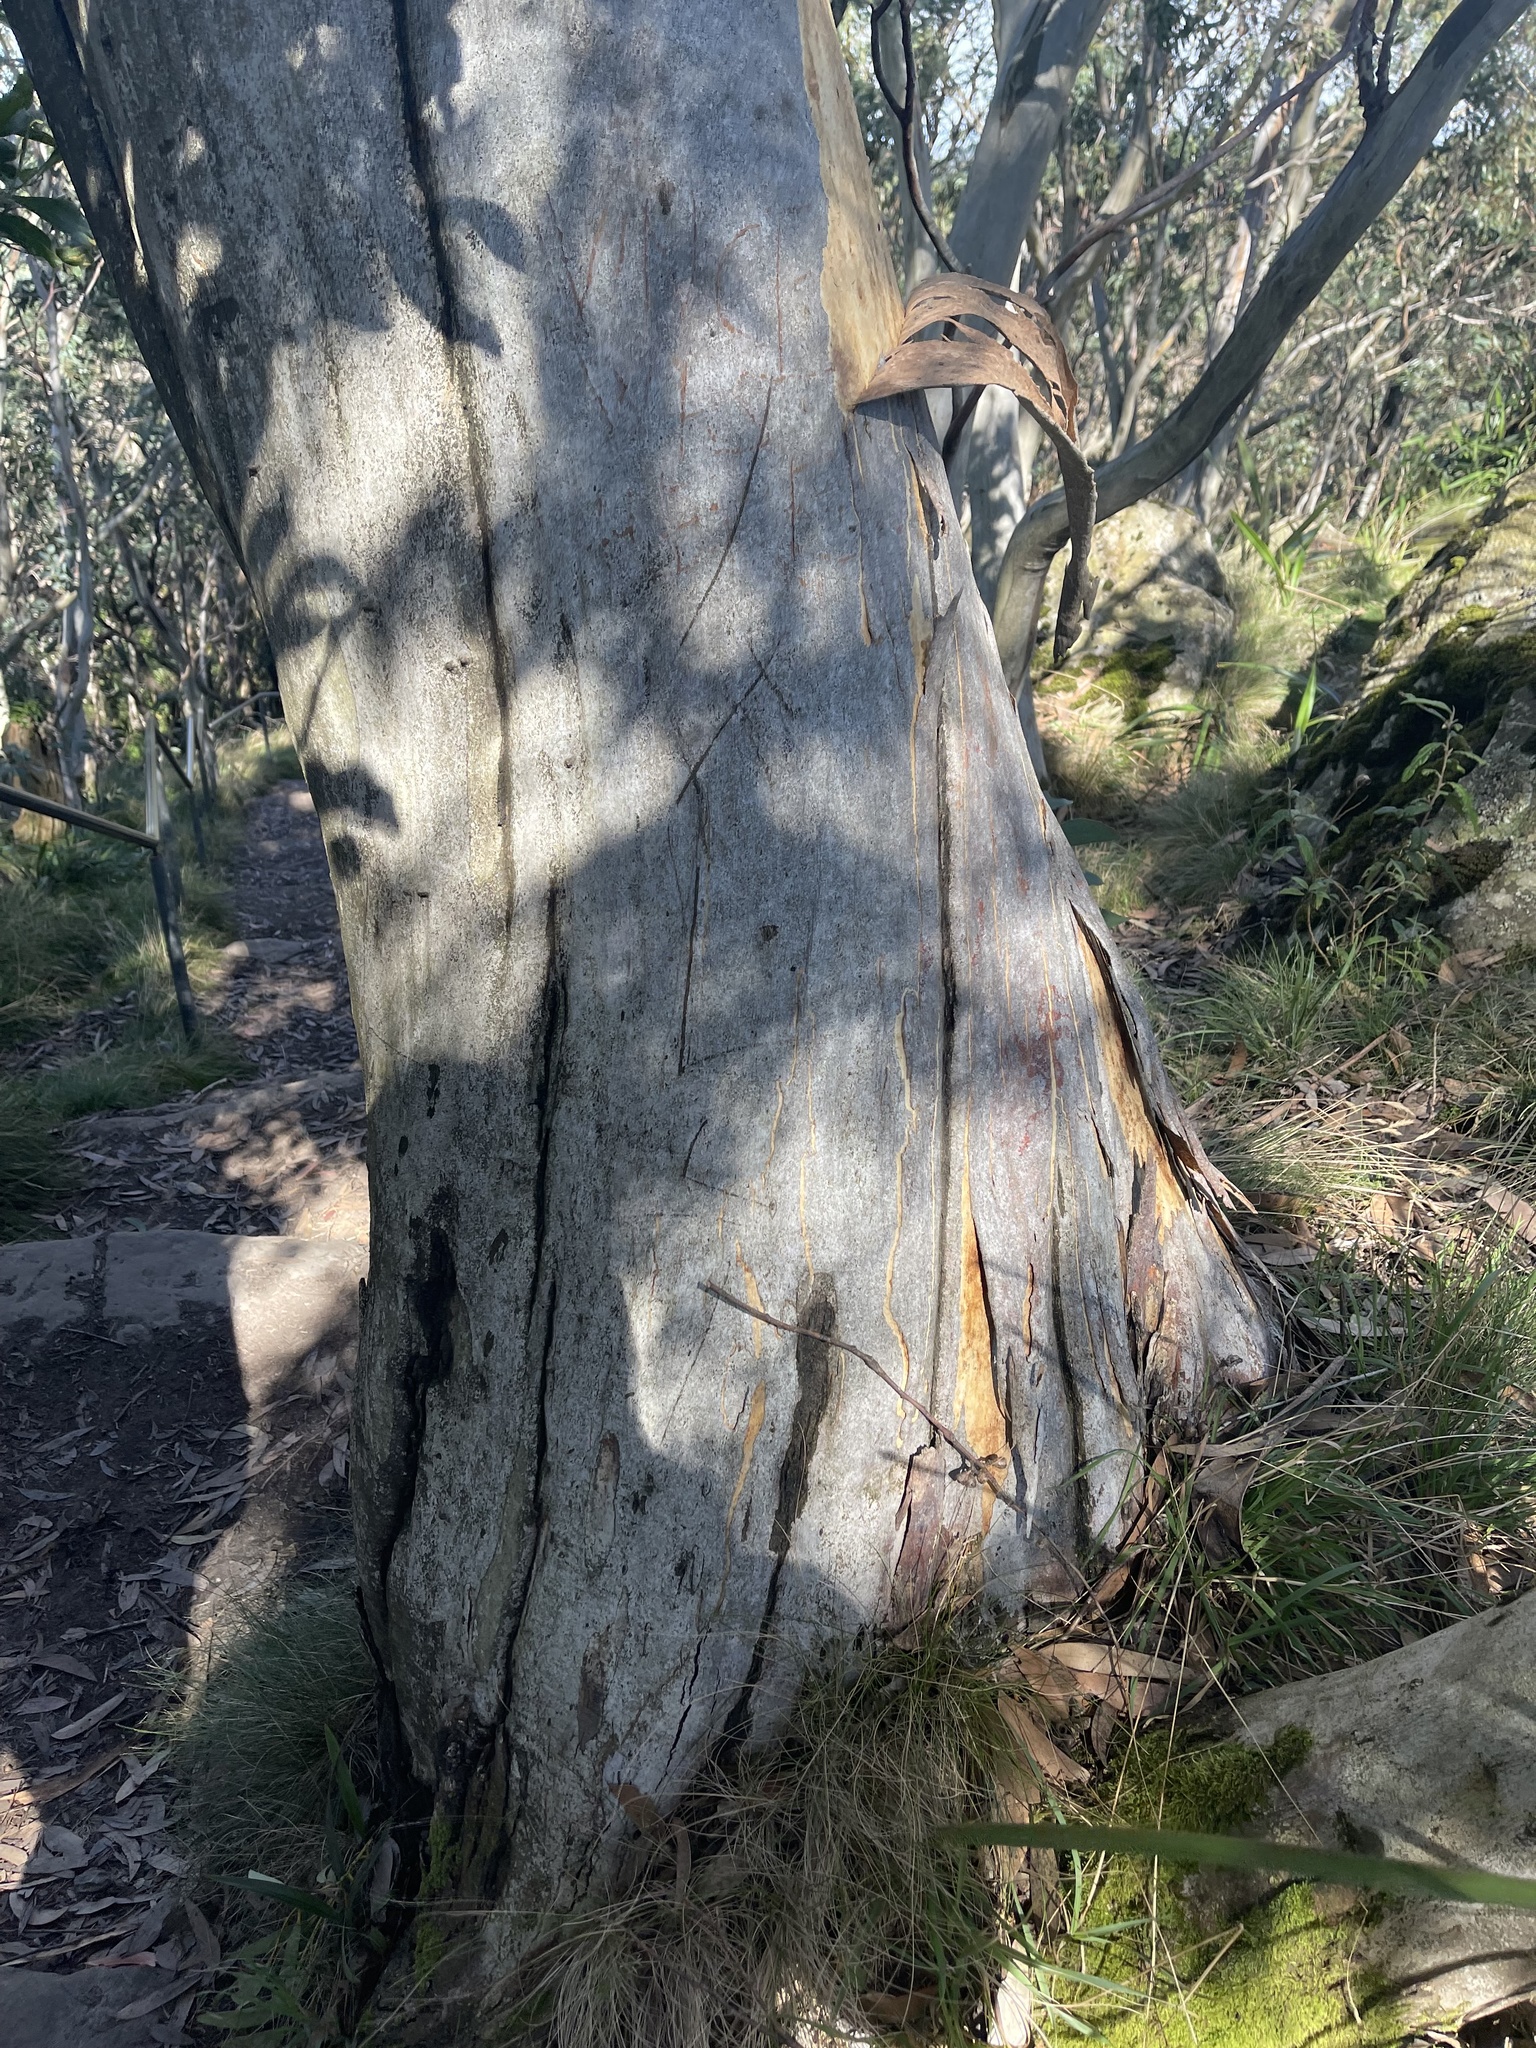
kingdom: Plantae
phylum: Tracheophyta
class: Magnoliopsida
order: Myrtales
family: Myrtaceae
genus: Eucalyptus
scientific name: Eucalyptus pauciflora
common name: Snow gum
